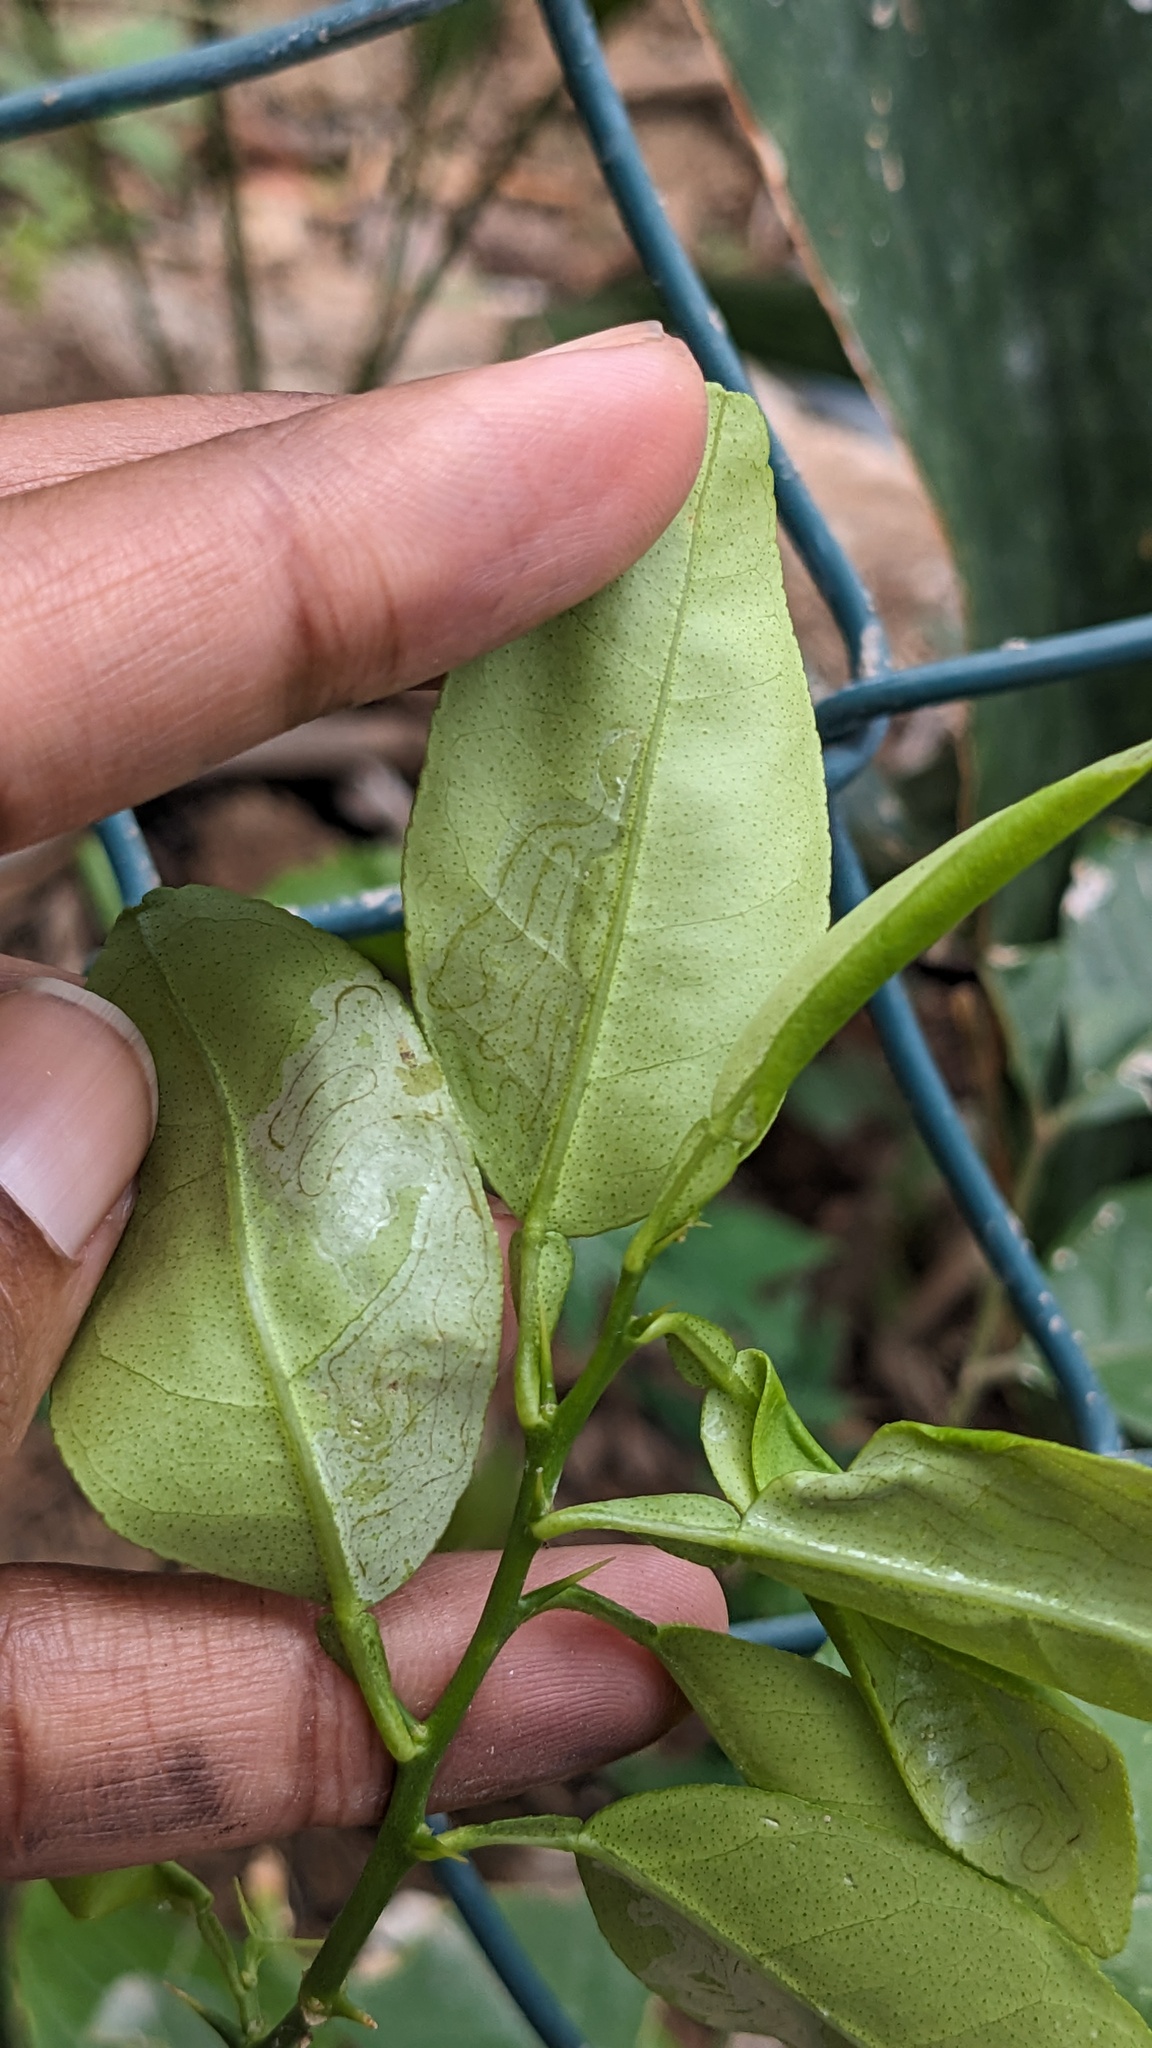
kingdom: Animalia
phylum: Arthropoda
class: Insecta
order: Lepidoptera
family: Gracillariidae
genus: Phyllocnistis
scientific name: Phyllocnistis citrella
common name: Citrus leafminer
